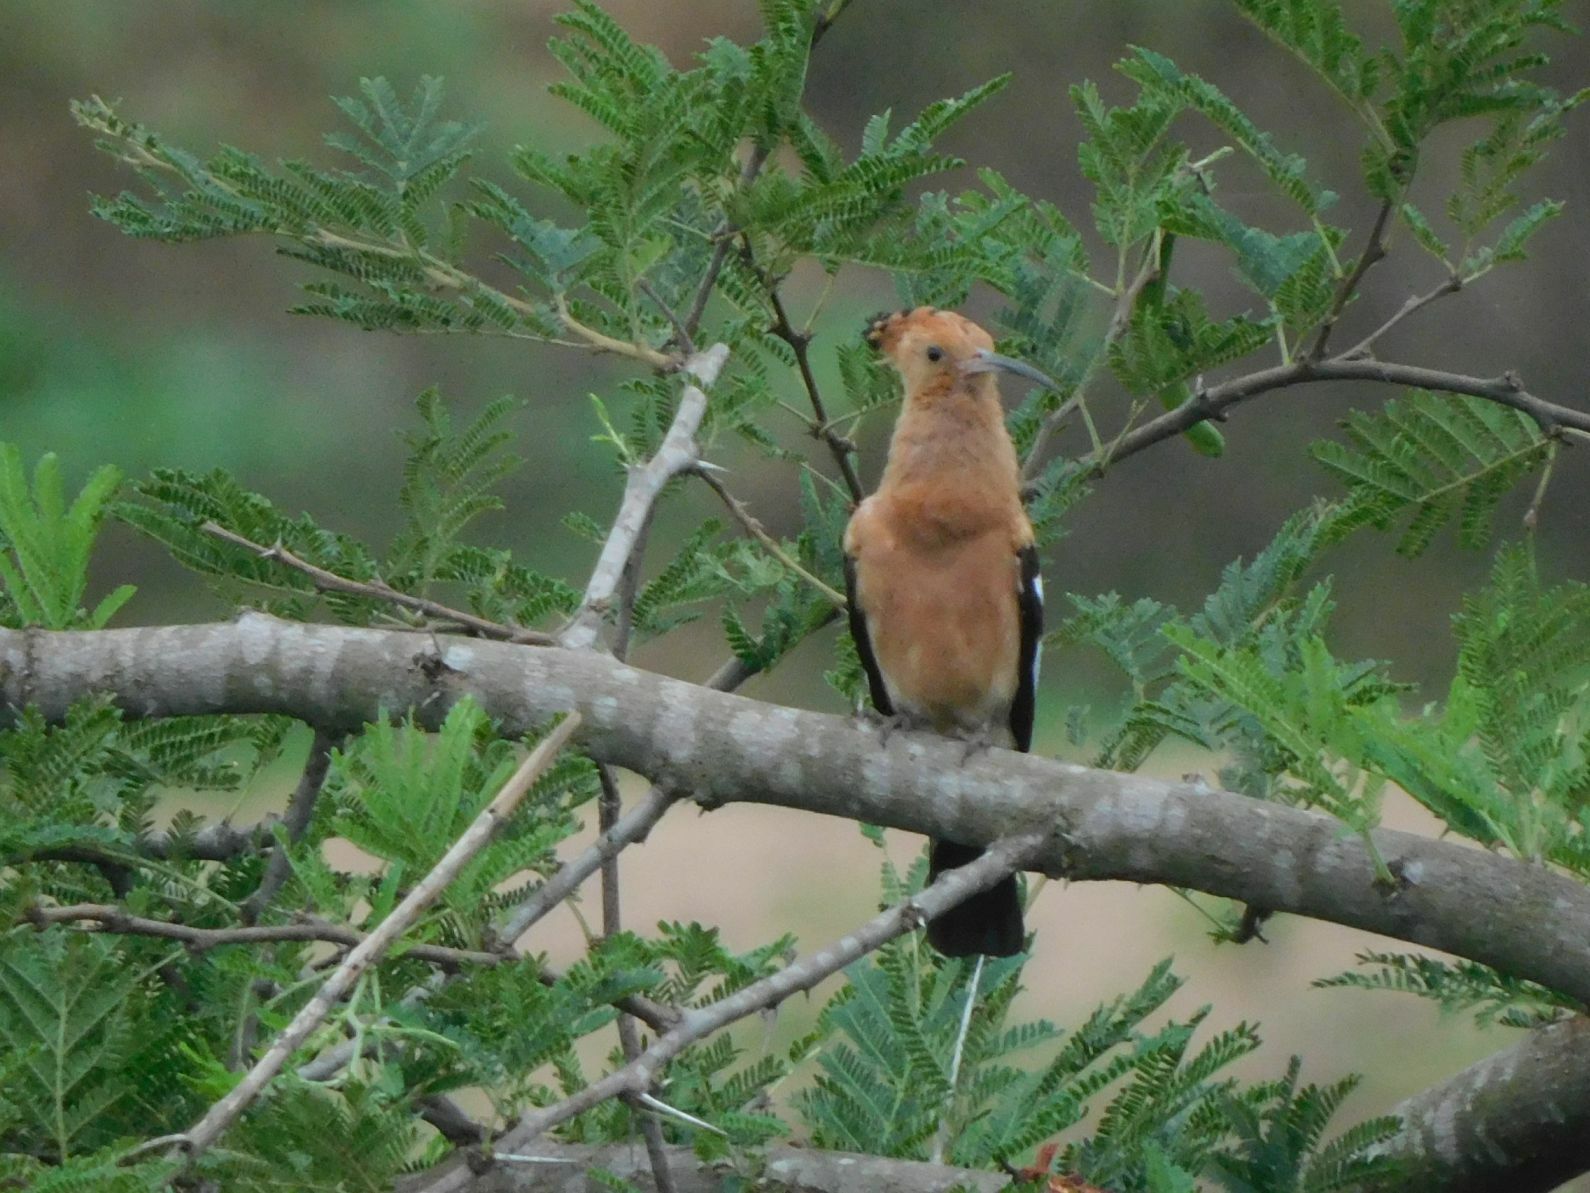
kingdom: Animalia
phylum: Chordata
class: Aves
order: Bucerotiformes
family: Upupidae
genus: Upupa
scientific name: Upupa africana
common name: African hoopoe
